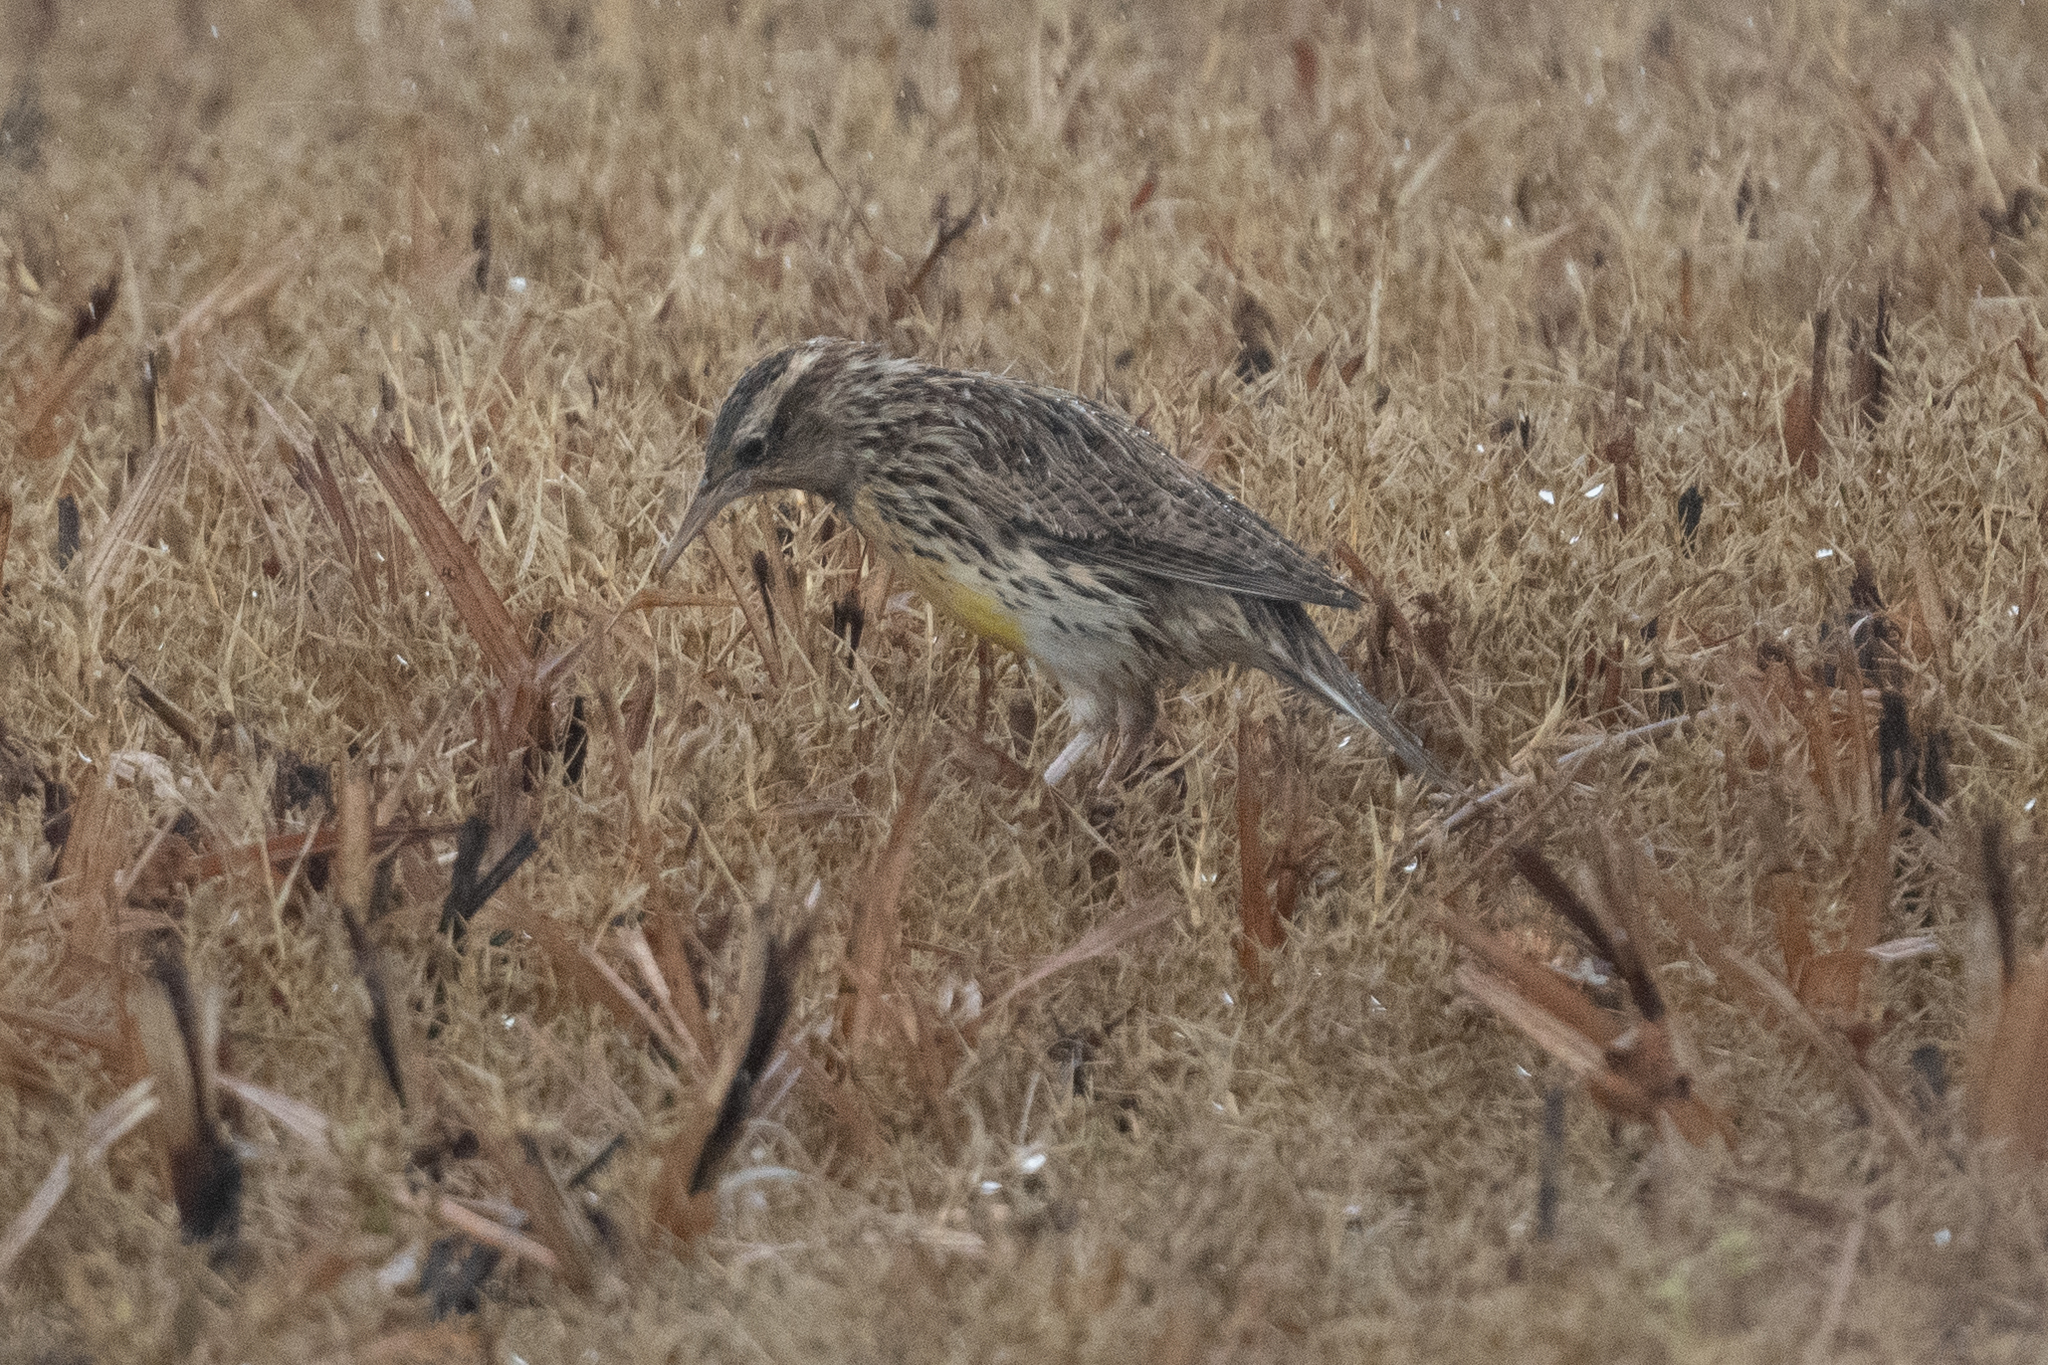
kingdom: Animalia
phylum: Chordata
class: Aves
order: Passeriformes
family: Icteridae
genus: Sturnella
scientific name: Sturnella neglecta
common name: Western meadowlark
